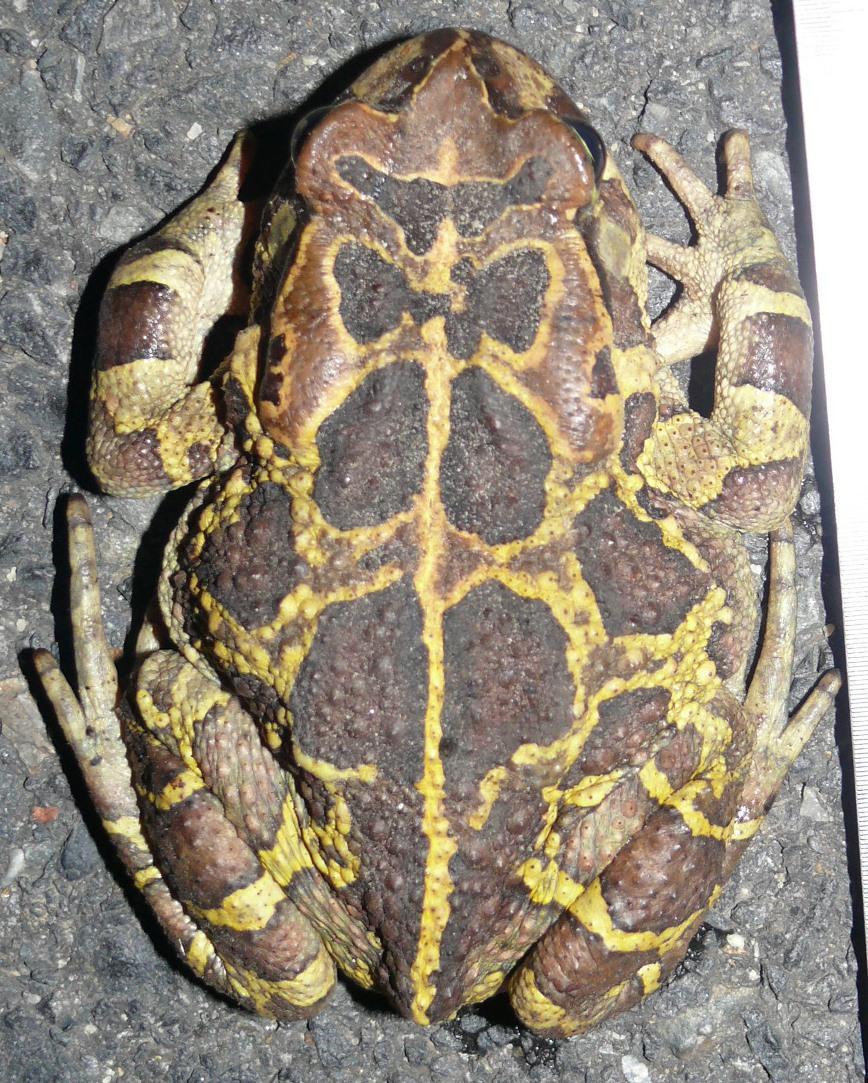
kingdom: Animalia
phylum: Chordata
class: Amphibia
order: Anura
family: Bufonidae
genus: Sclerophrys
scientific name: Sclerophrys pantherina
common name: Panther toad
